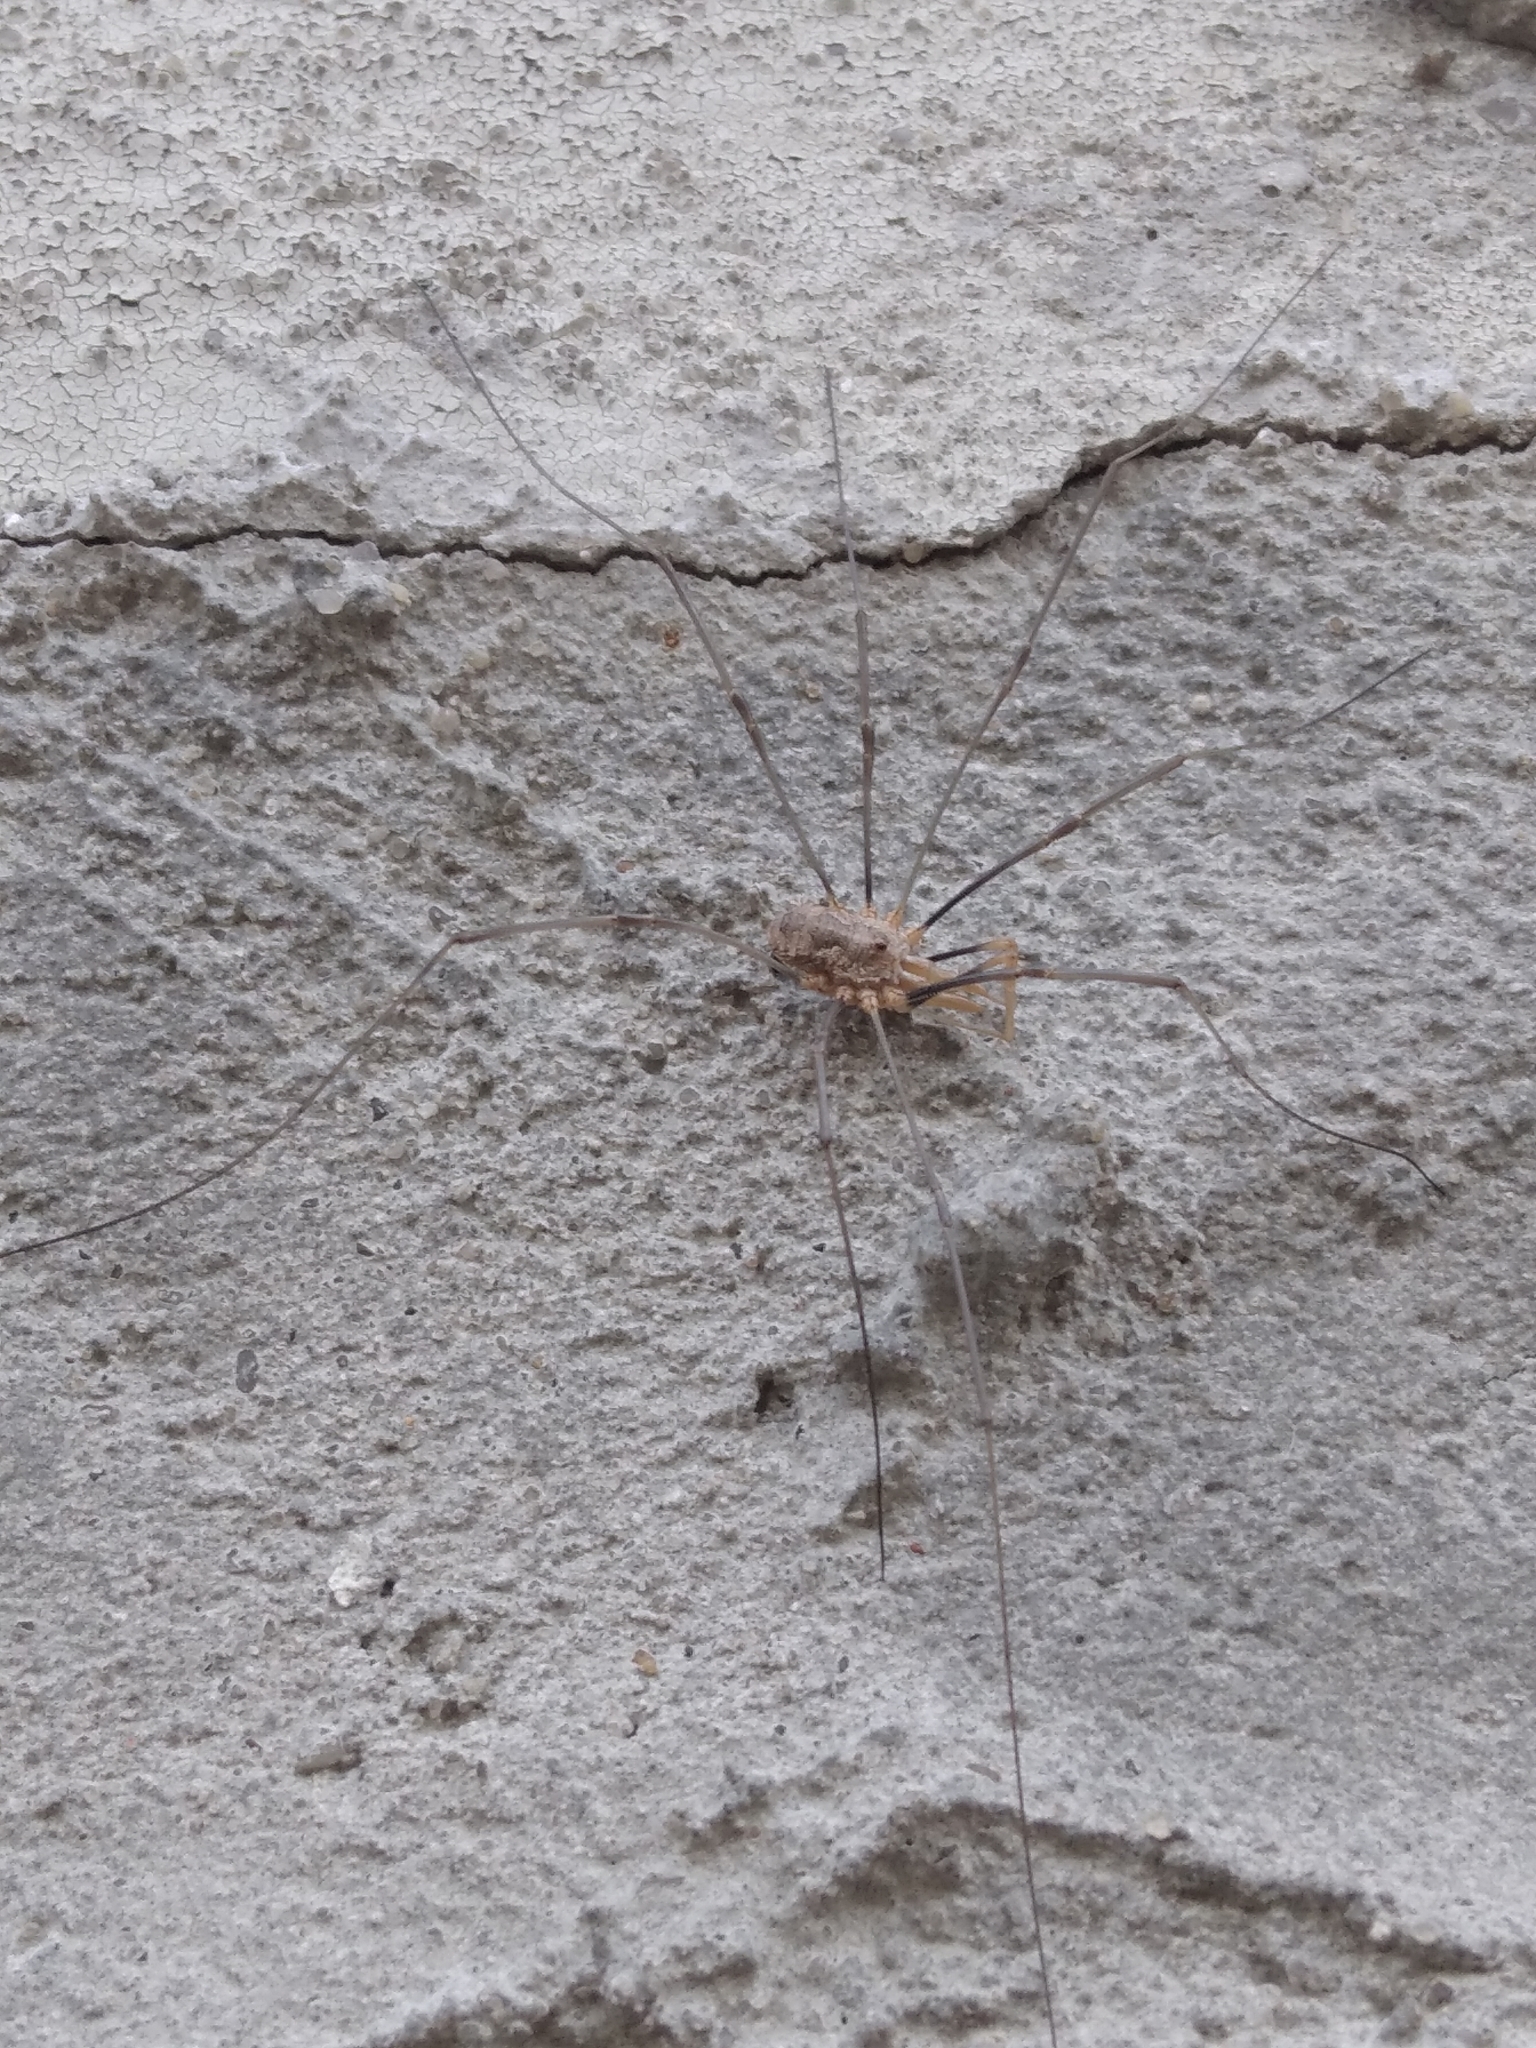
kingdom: Animalia
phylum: Arthropoda
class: Arachnida
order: Opiliones
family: Phalangiidae
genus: Phalangium
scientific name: Phalangium opilio
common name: Daddy longleg
